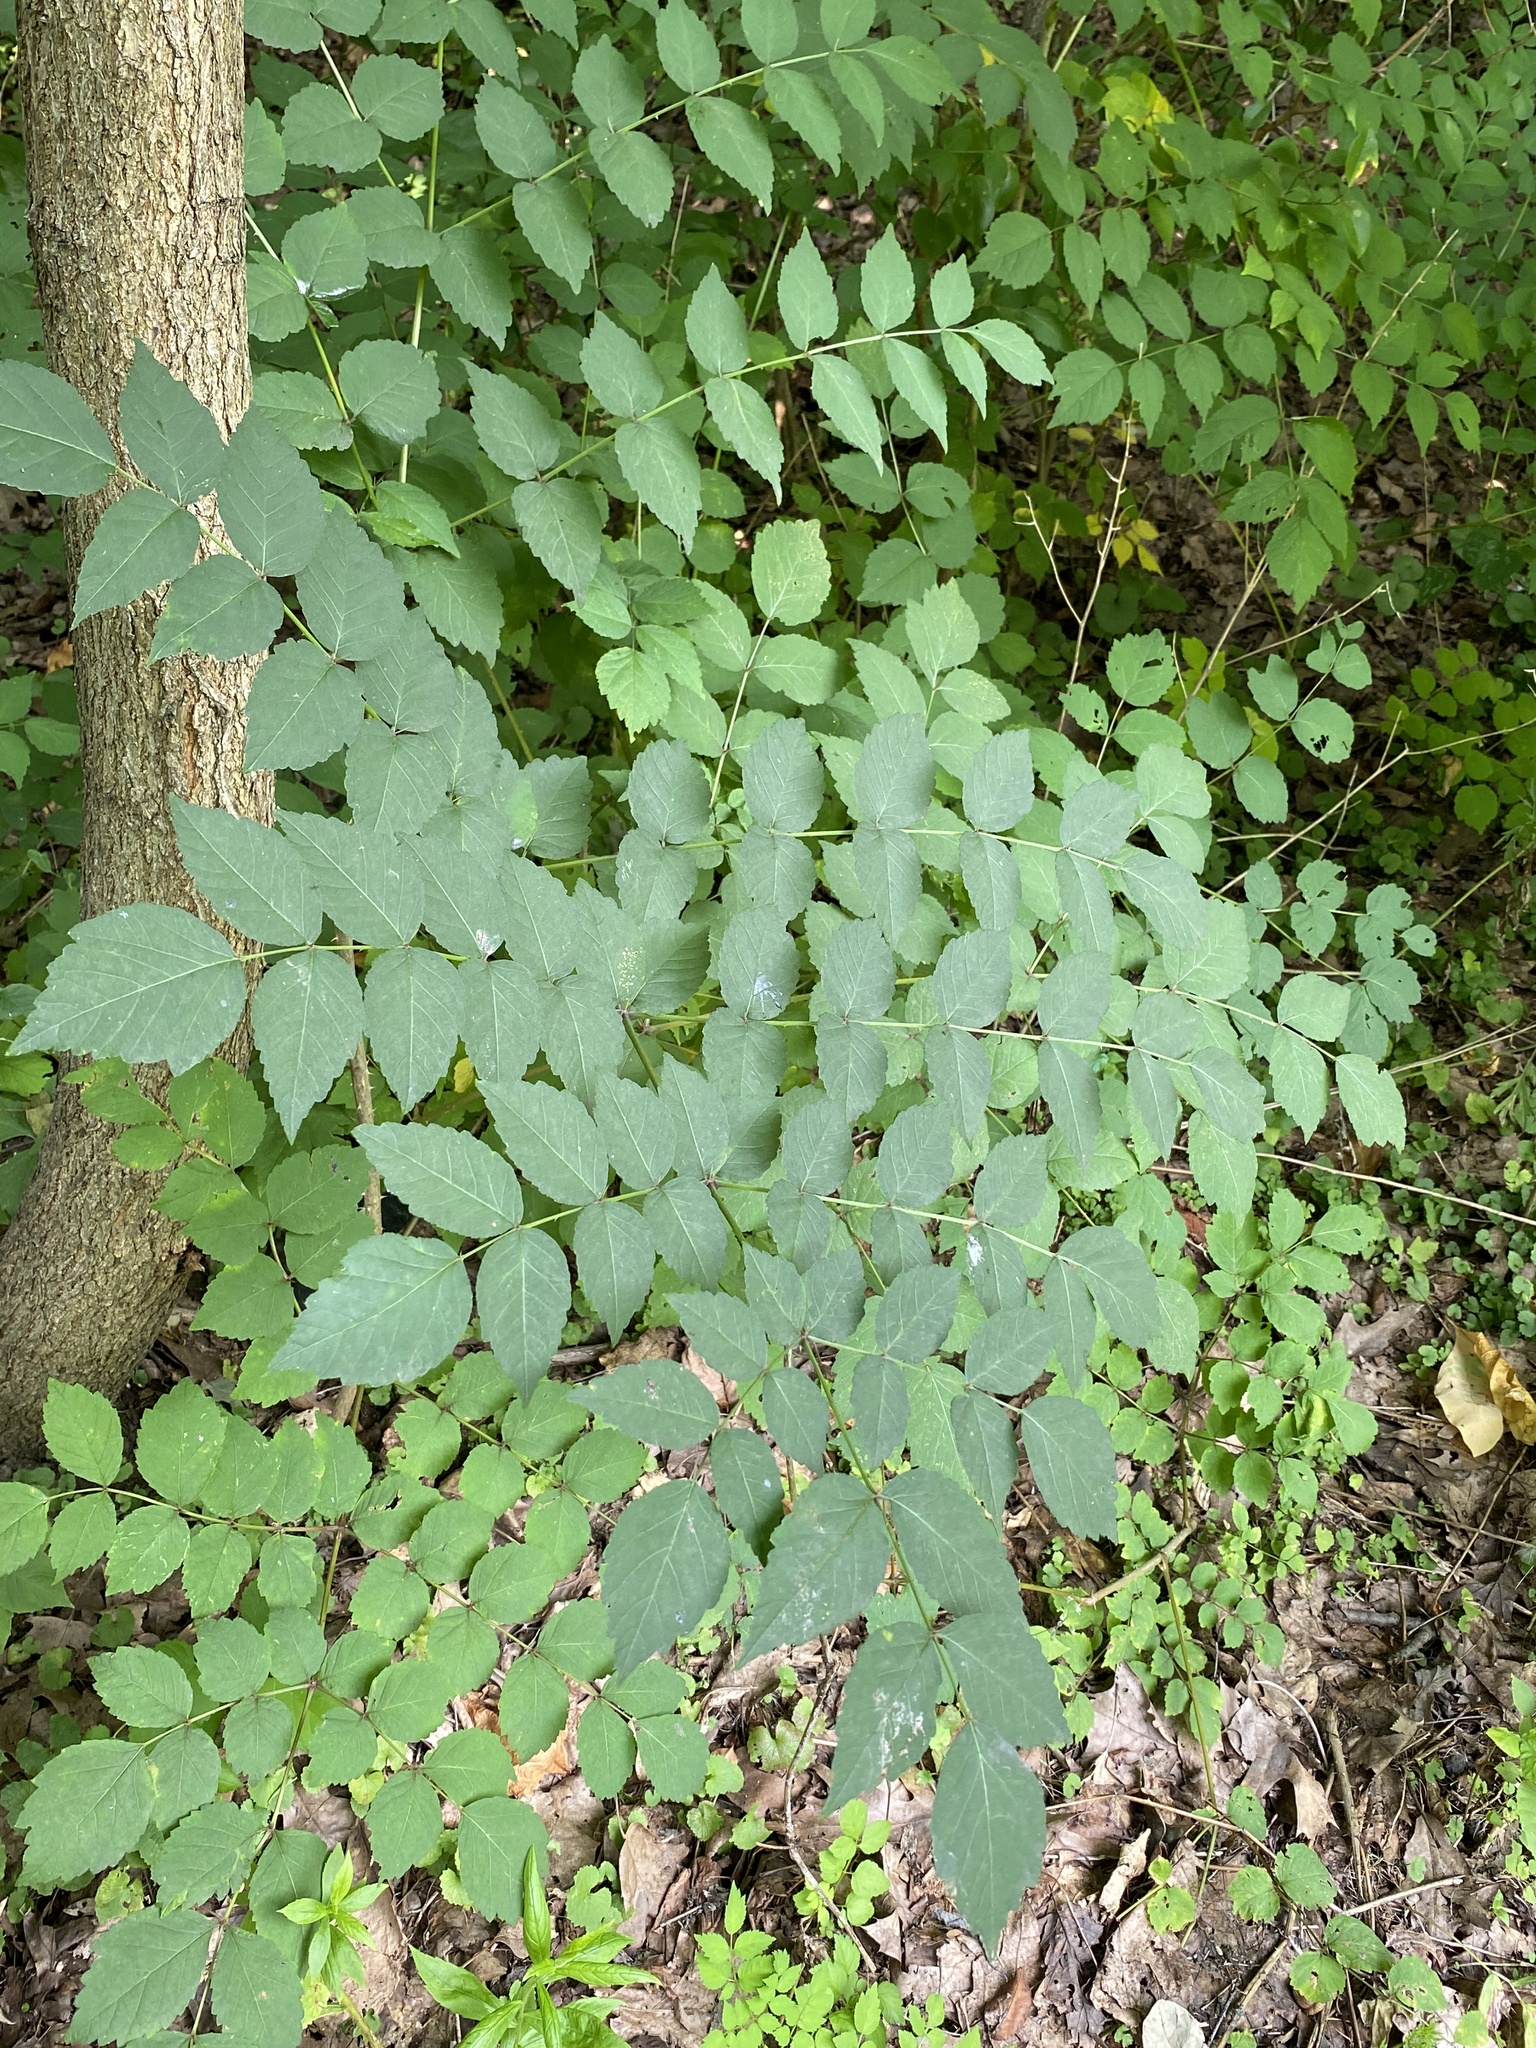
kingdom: Plantae
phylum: Tracheophyta
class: Magnoliopsida
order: Apiales
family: Araliaceae
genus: Aralia
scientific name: Aralia elata
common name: Japanese angelica-tree
